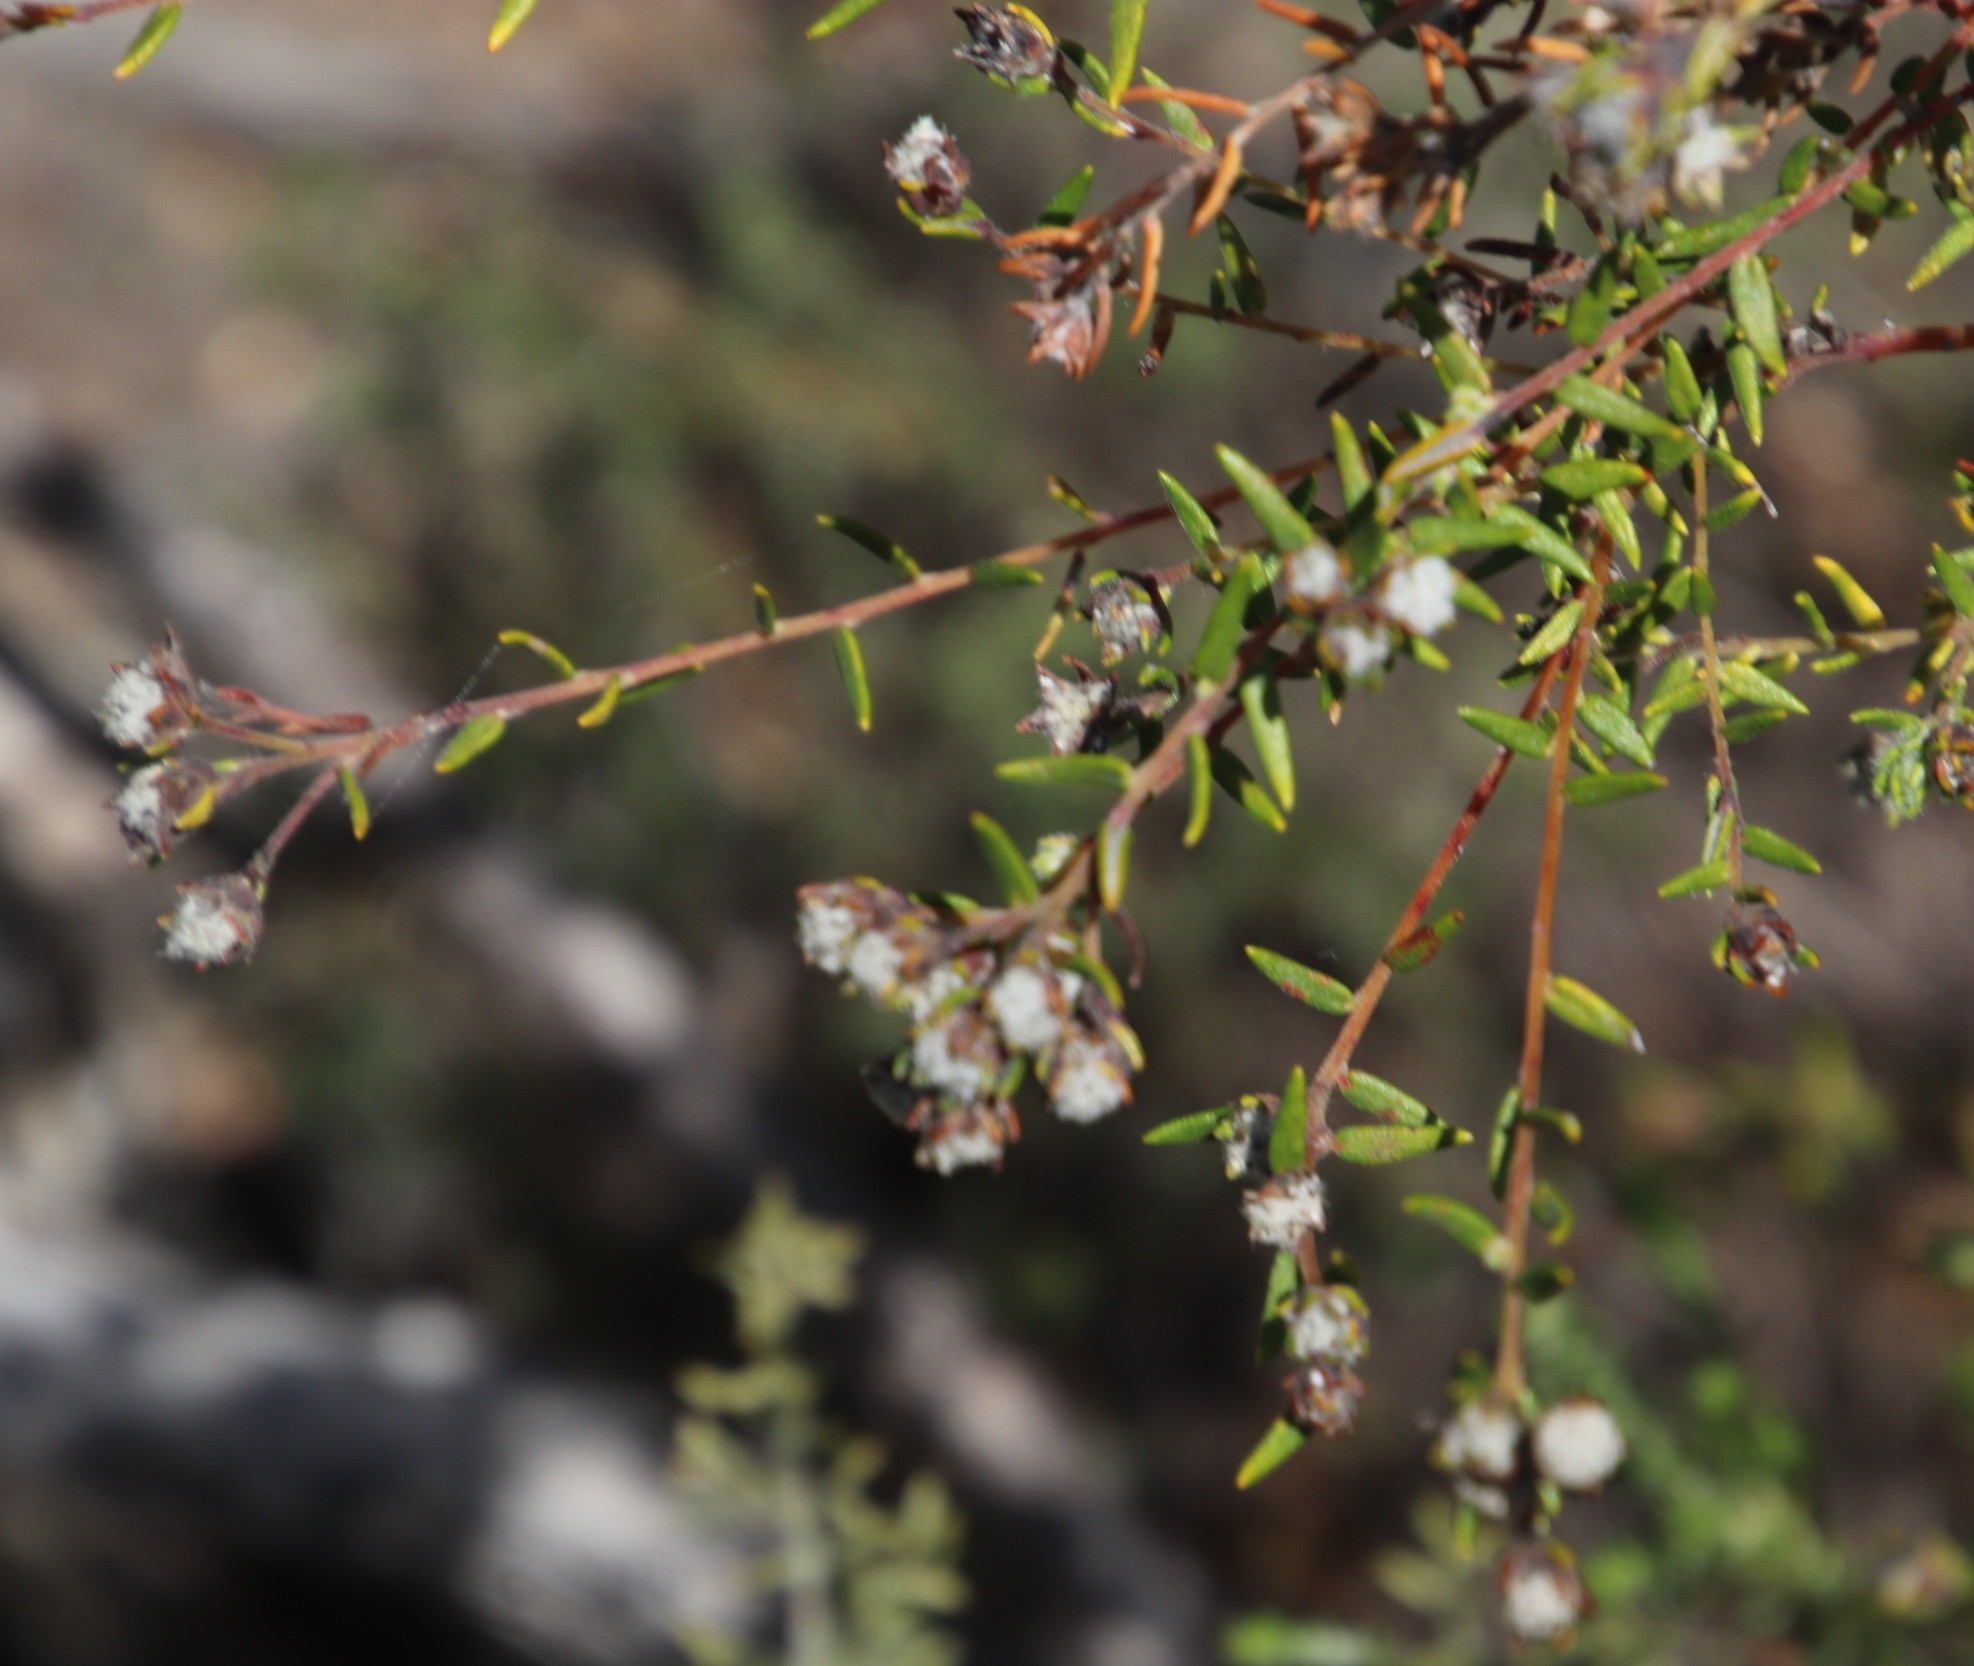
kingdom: Plantae
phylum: Tracheophyta
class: Magnoliopsida
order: Rosales
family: Rhamnaceae
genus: Phylica
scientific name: Phylica virgata
